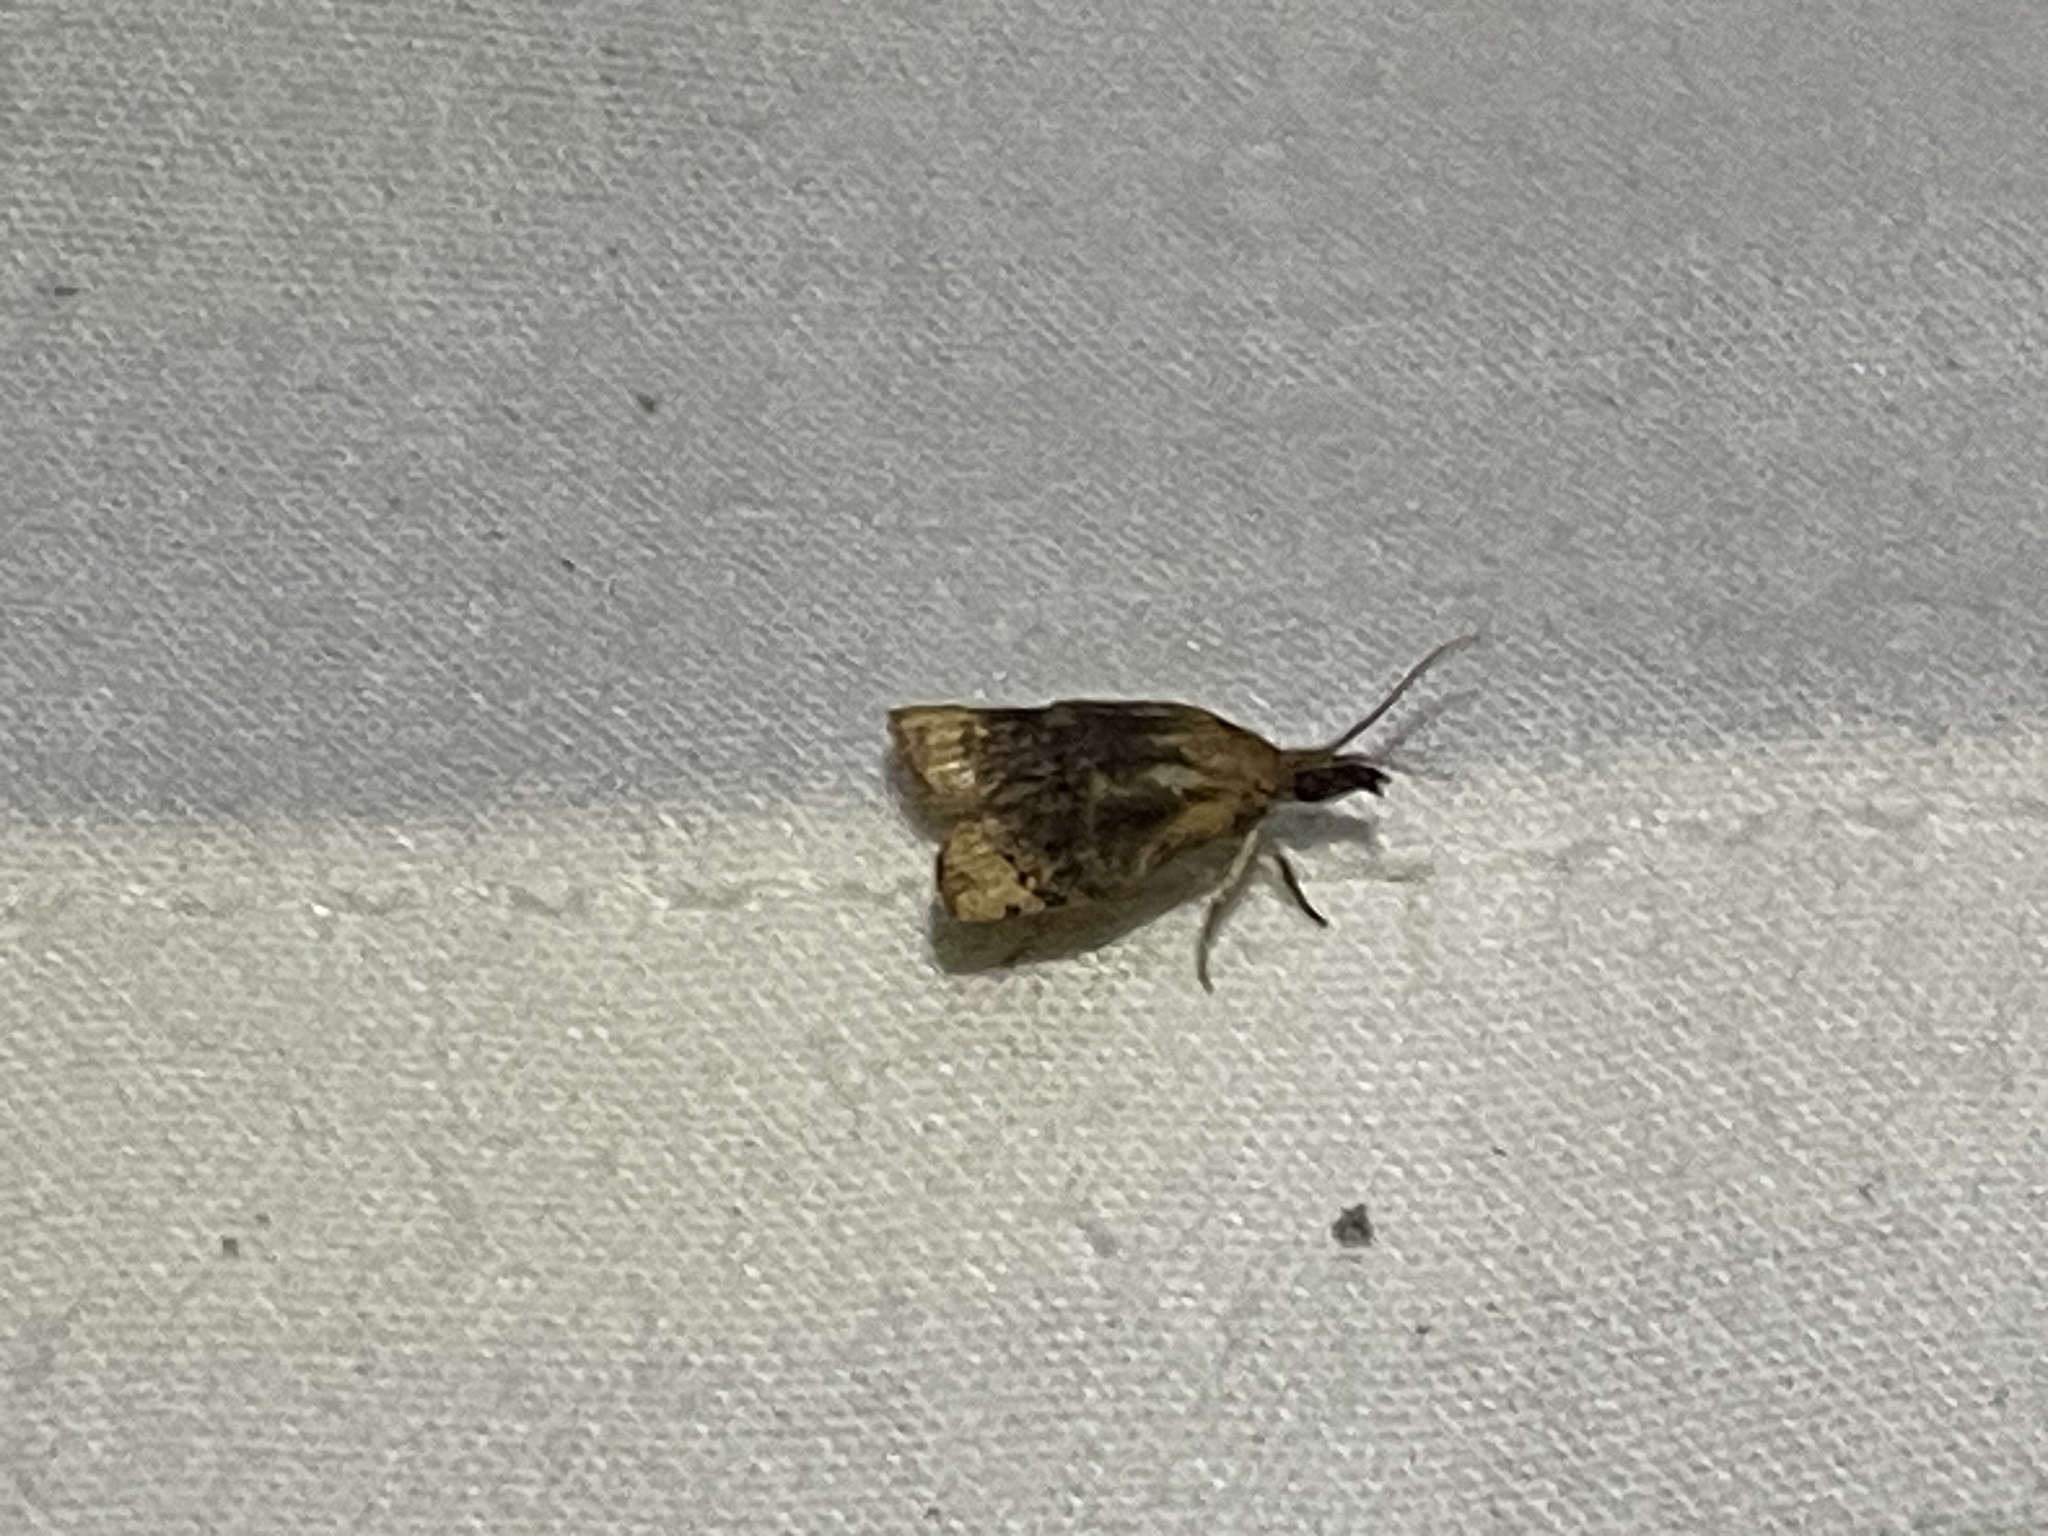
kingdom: Animalia
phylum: Arthropoda
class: Insecta
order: Lepidoptera
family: Tortricidae
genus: Platynota
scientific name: Platynota flavedana
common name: Black-shaded platynota moth
